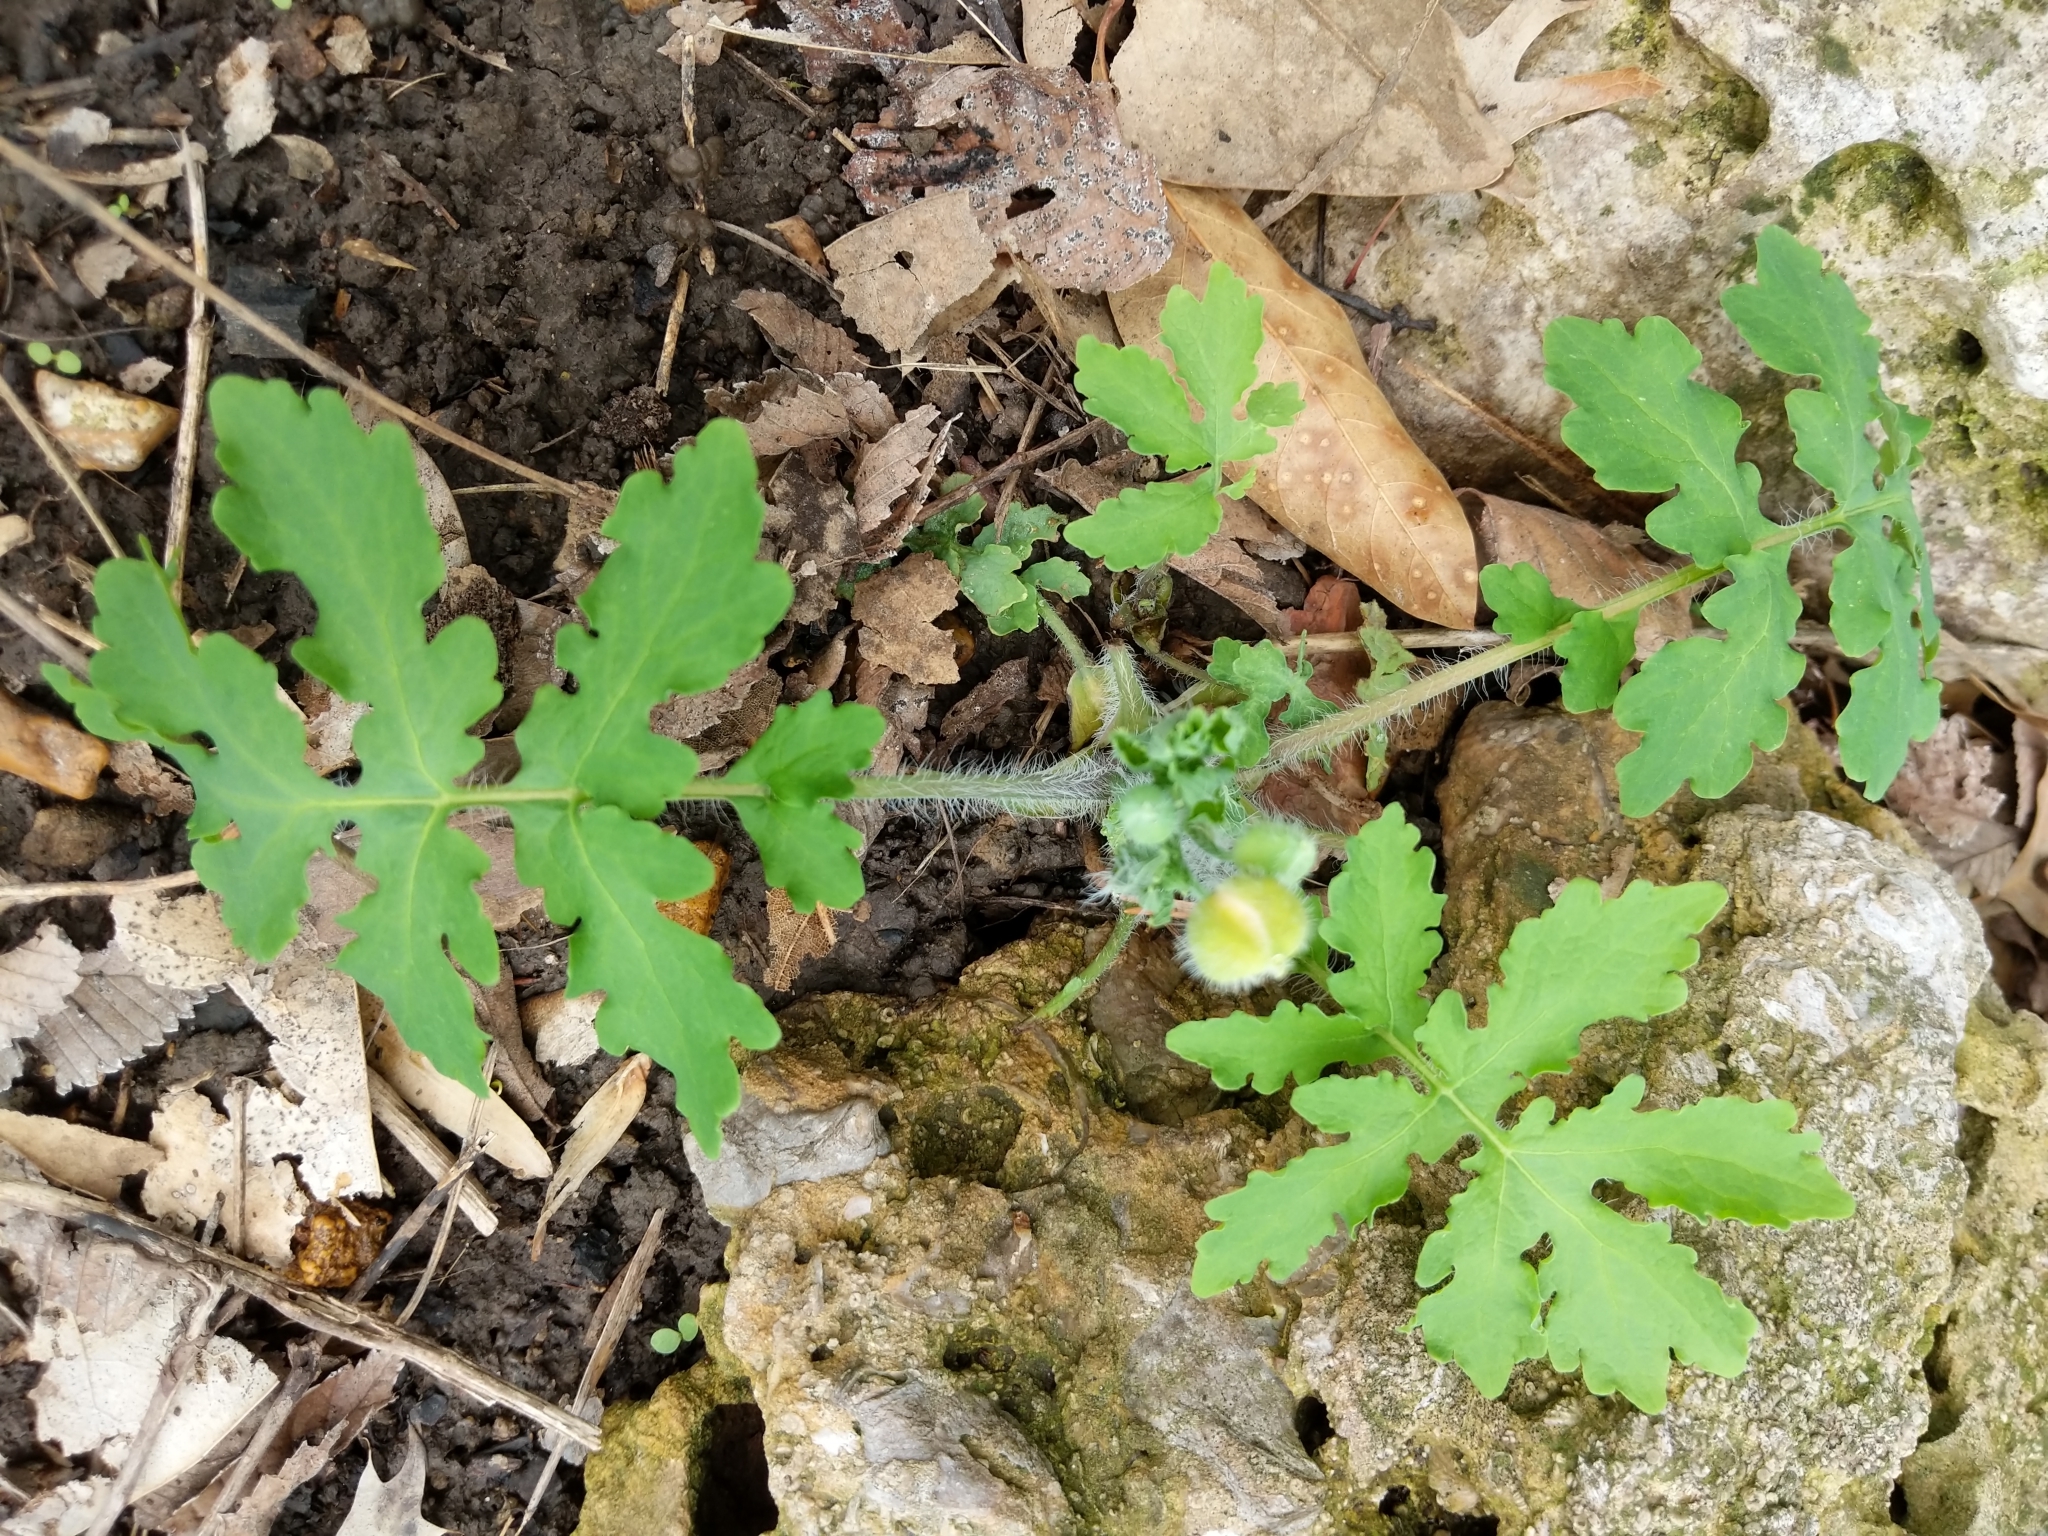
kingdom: Plantae
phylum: Tracheophyta
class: Magnoliopsida
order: Ranunculales
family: Papaveraceae
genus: Stylophorum
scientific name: Stylophorum diphyllum
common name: Celandine poppy
